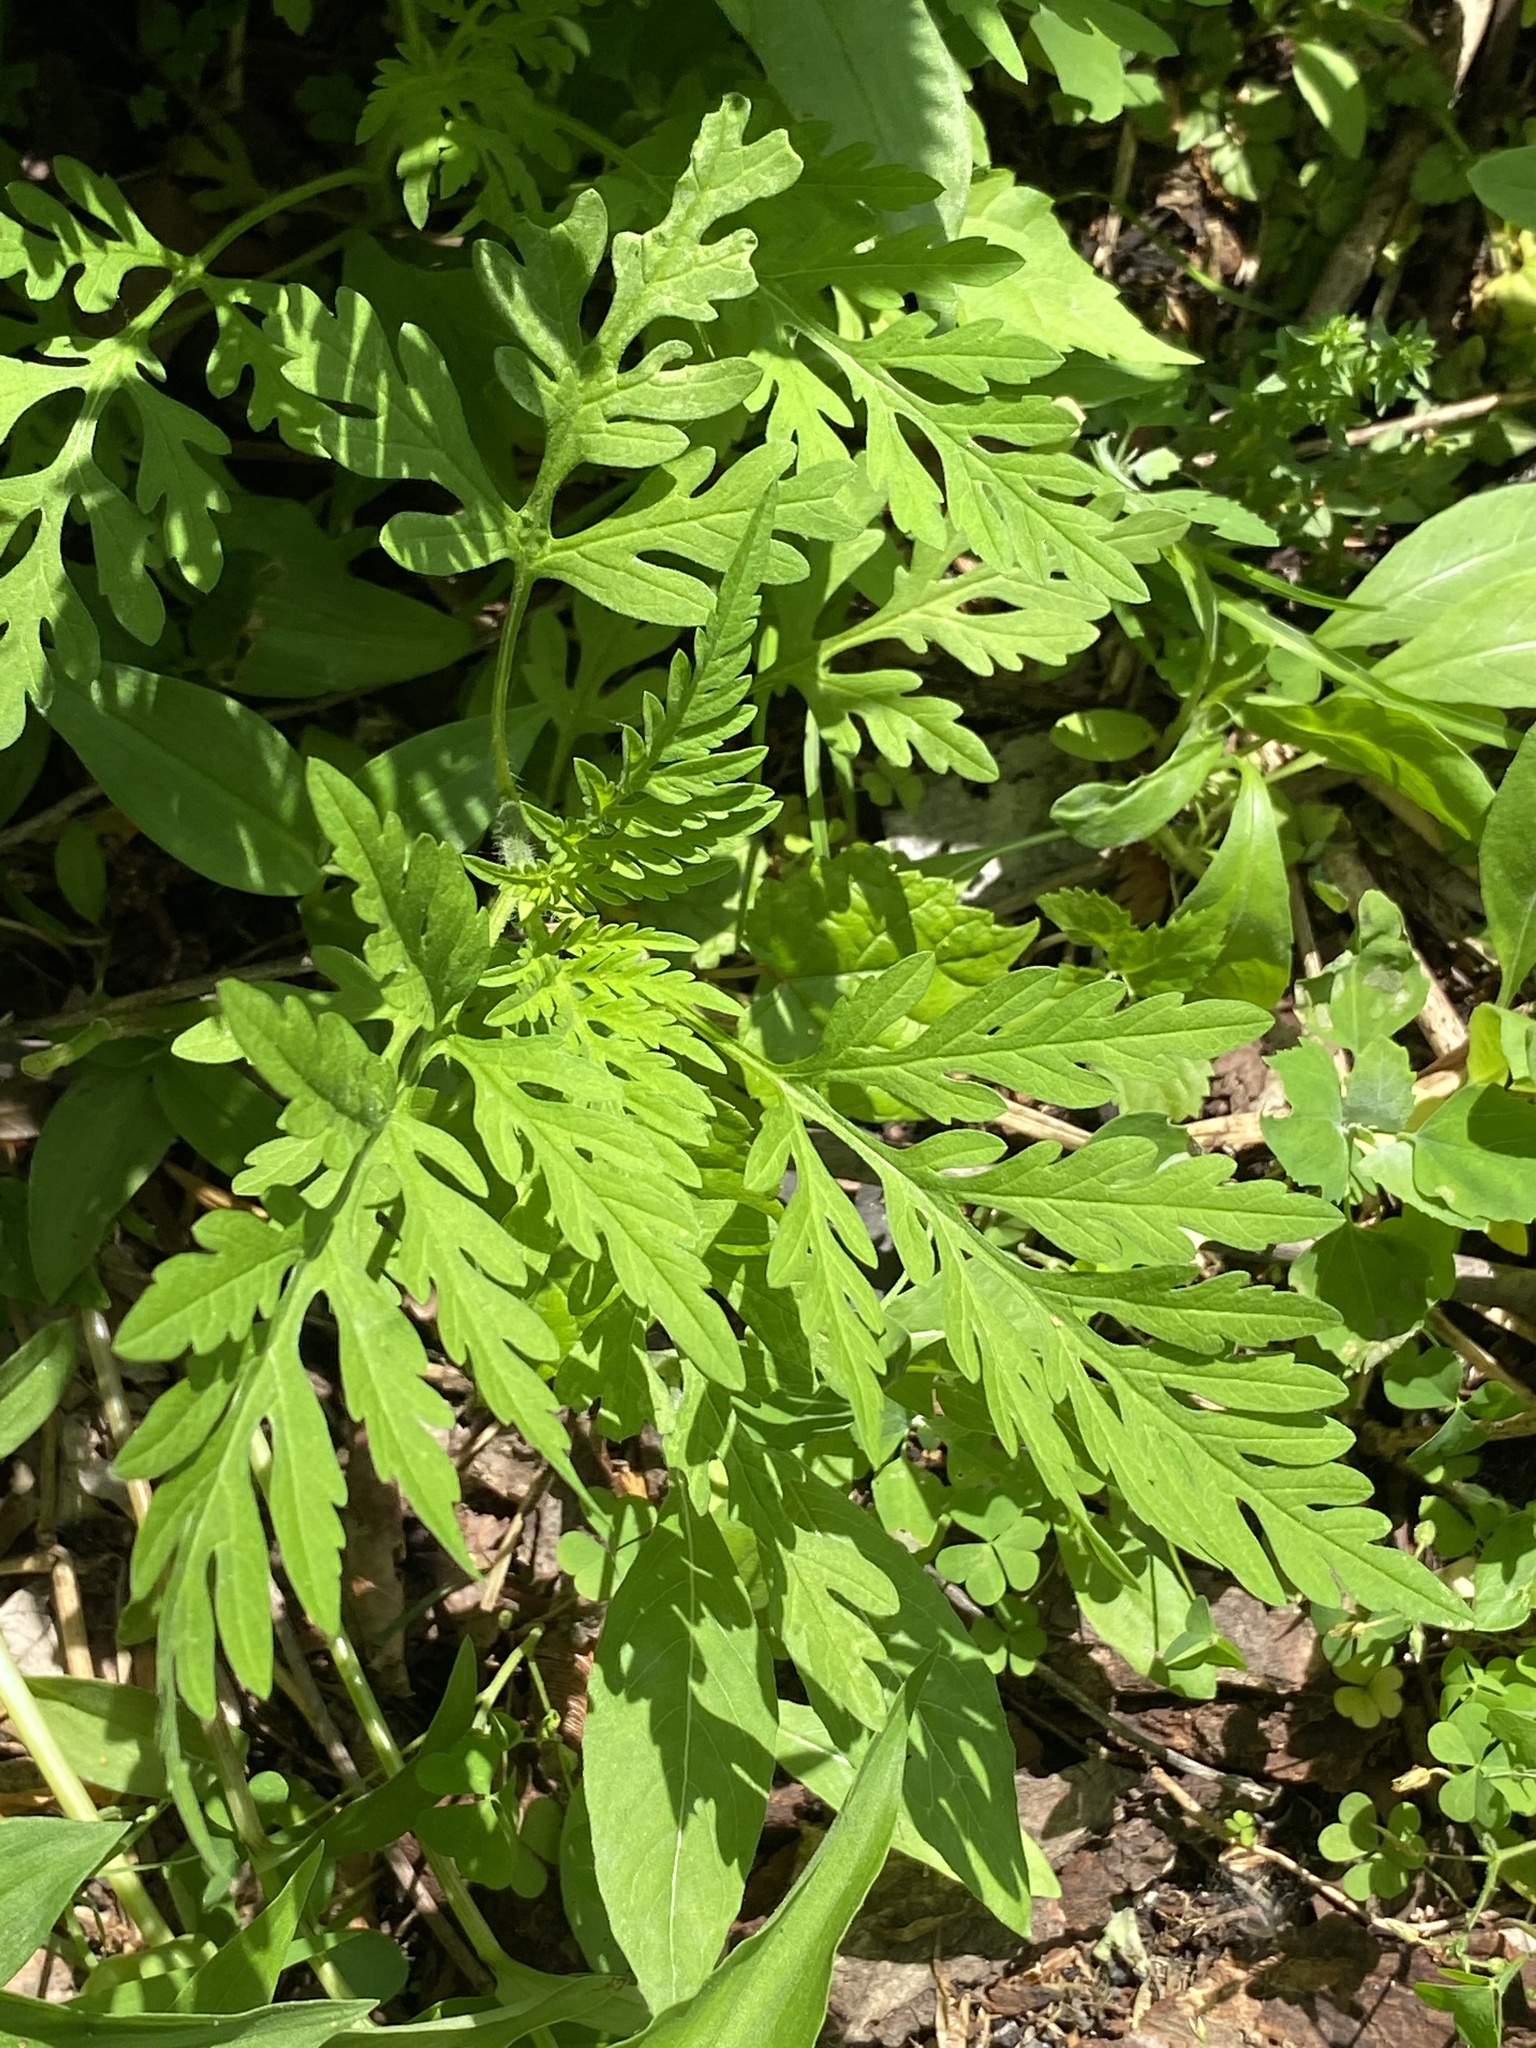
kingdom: Plantae
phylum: Tracheophyta
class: Magnoliopsida
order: Asterales
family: Asteraceae
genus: Ambrosia
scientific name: Ambrosia artemisiifolia
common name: Annual ragweed
